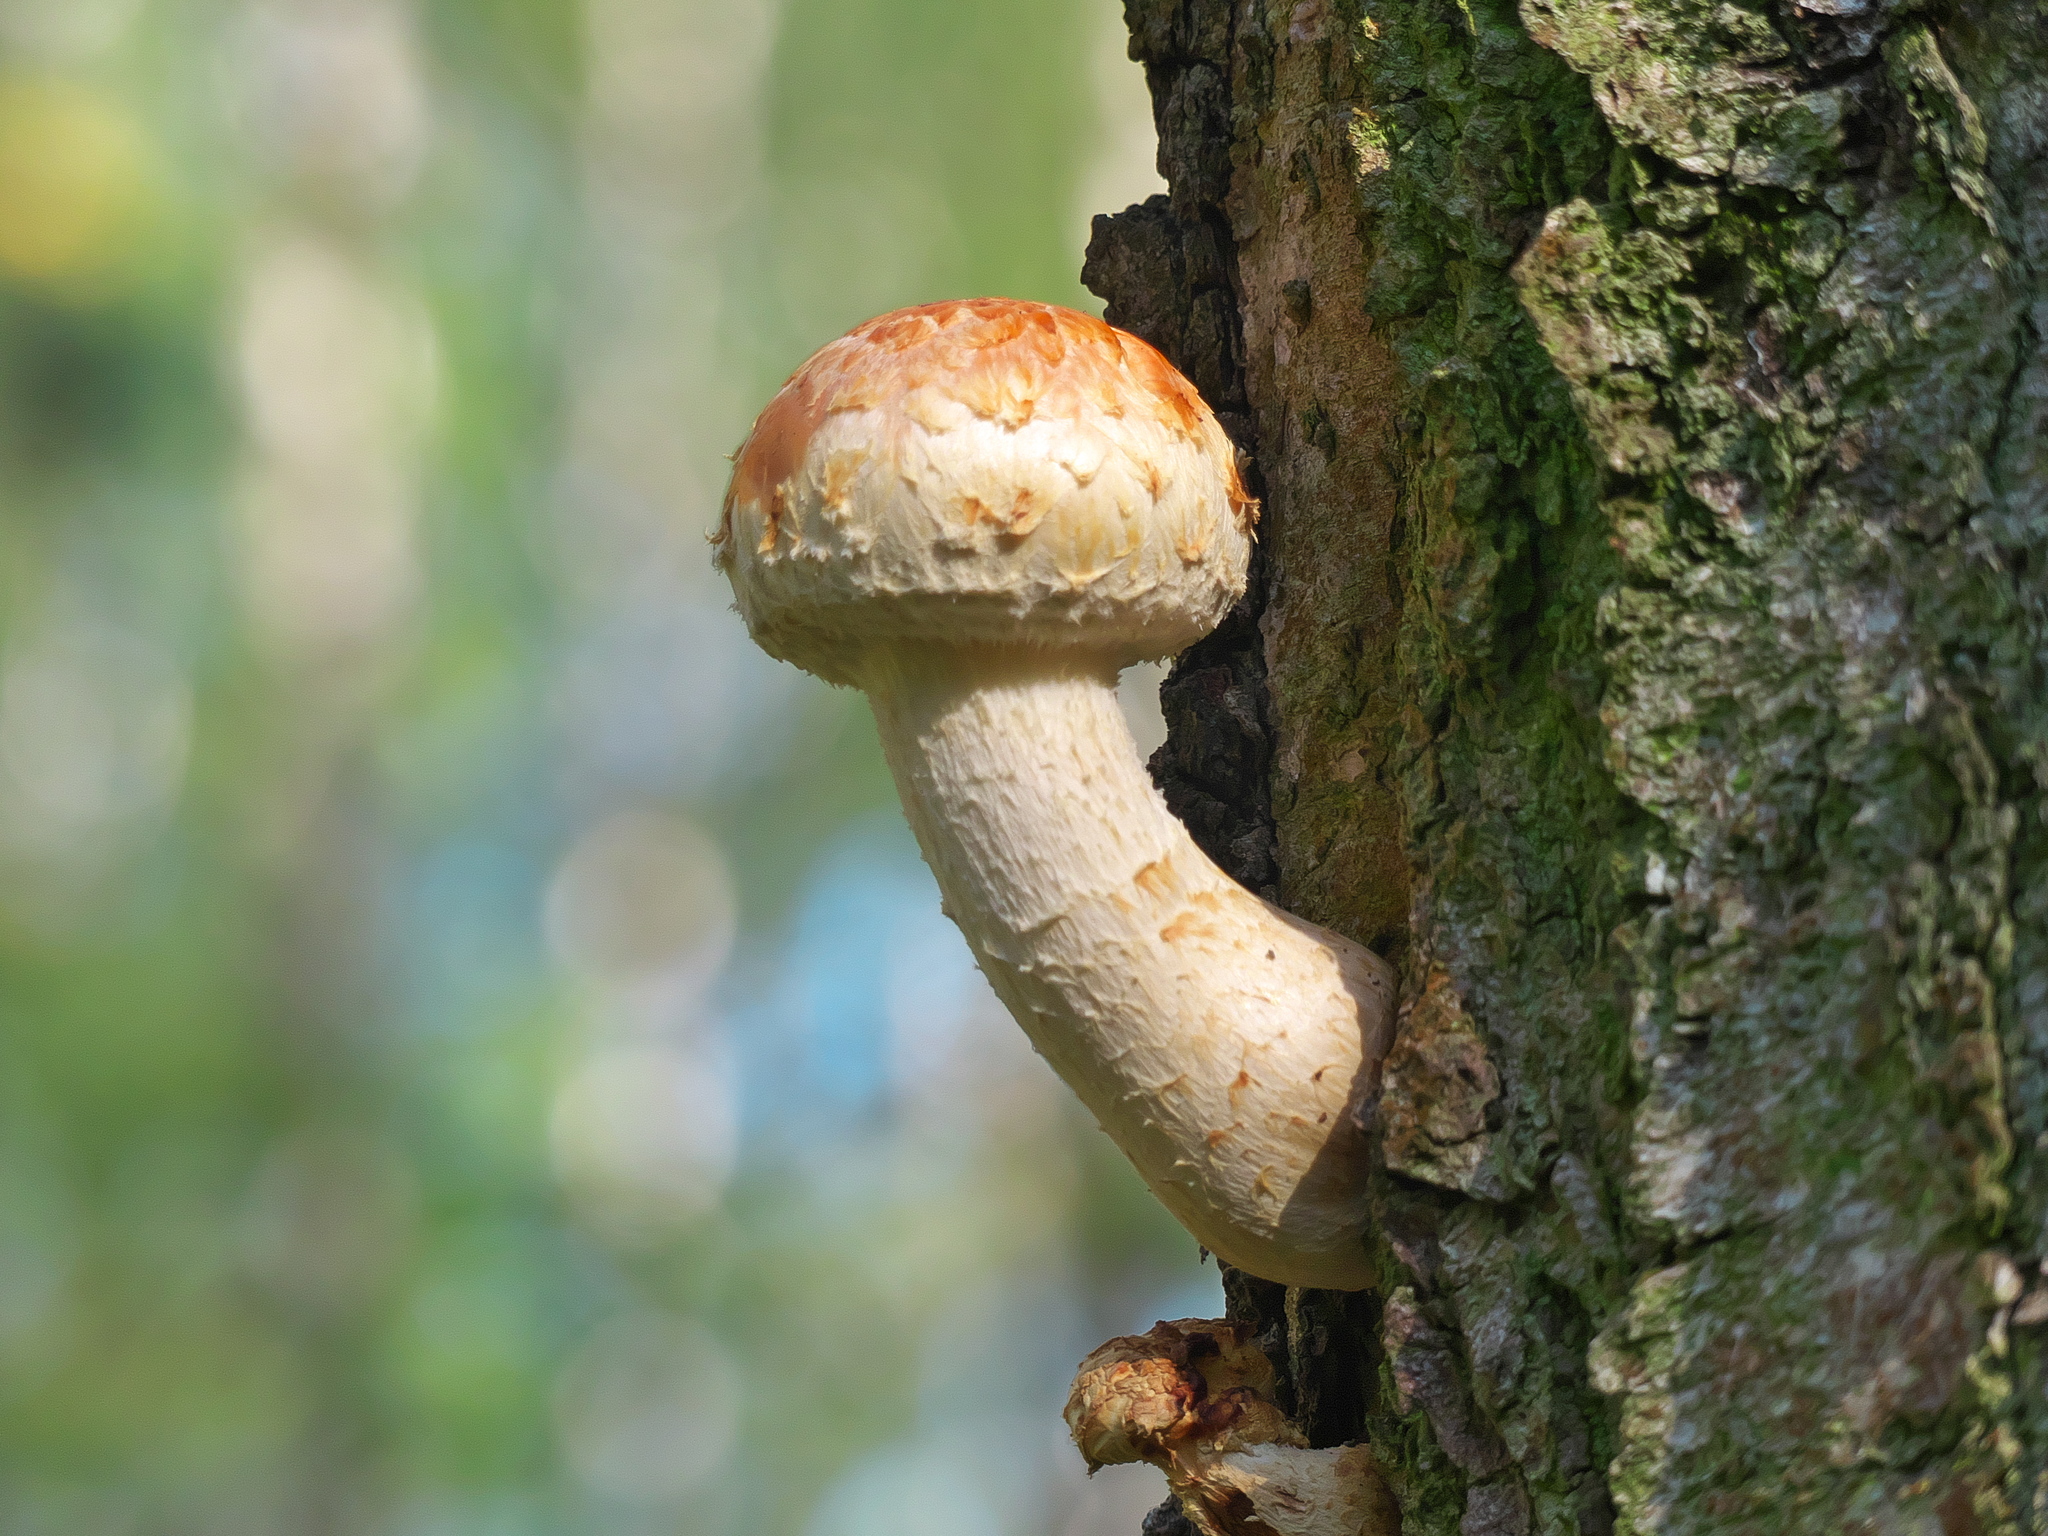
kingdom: Fungi
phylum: Basidiomycota
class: Agaricomycetes
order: Agaricales
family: Strophariaceae
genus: Pholiota
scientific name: Pholiota populnea
